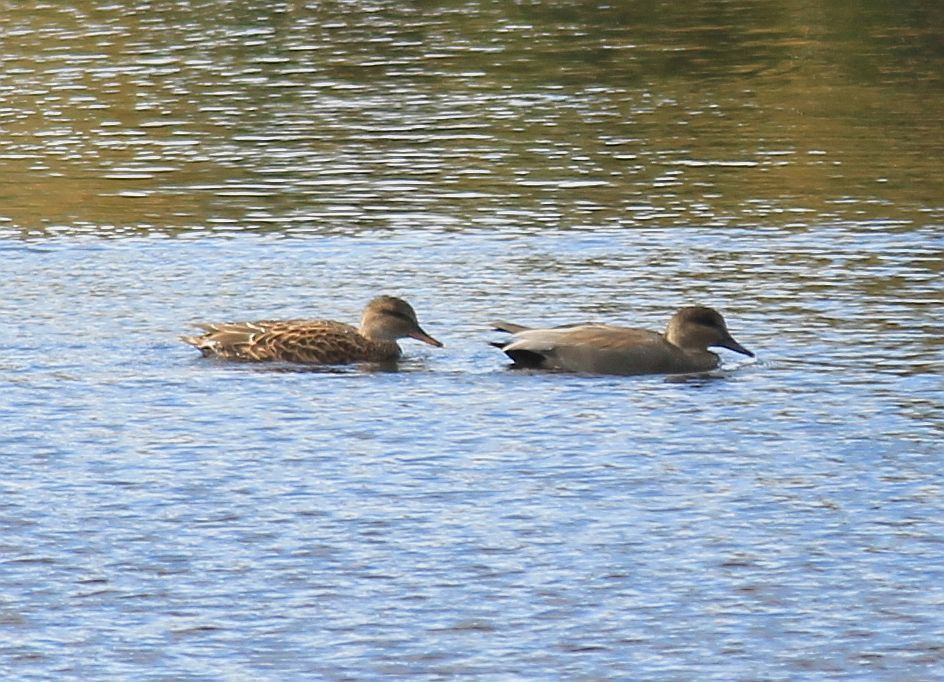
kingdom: Animalia
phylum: Chordata
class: Aves
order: Anseriformes
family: Anatidae
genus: Mareca
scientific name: Mareca strepera
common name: Gadwall
